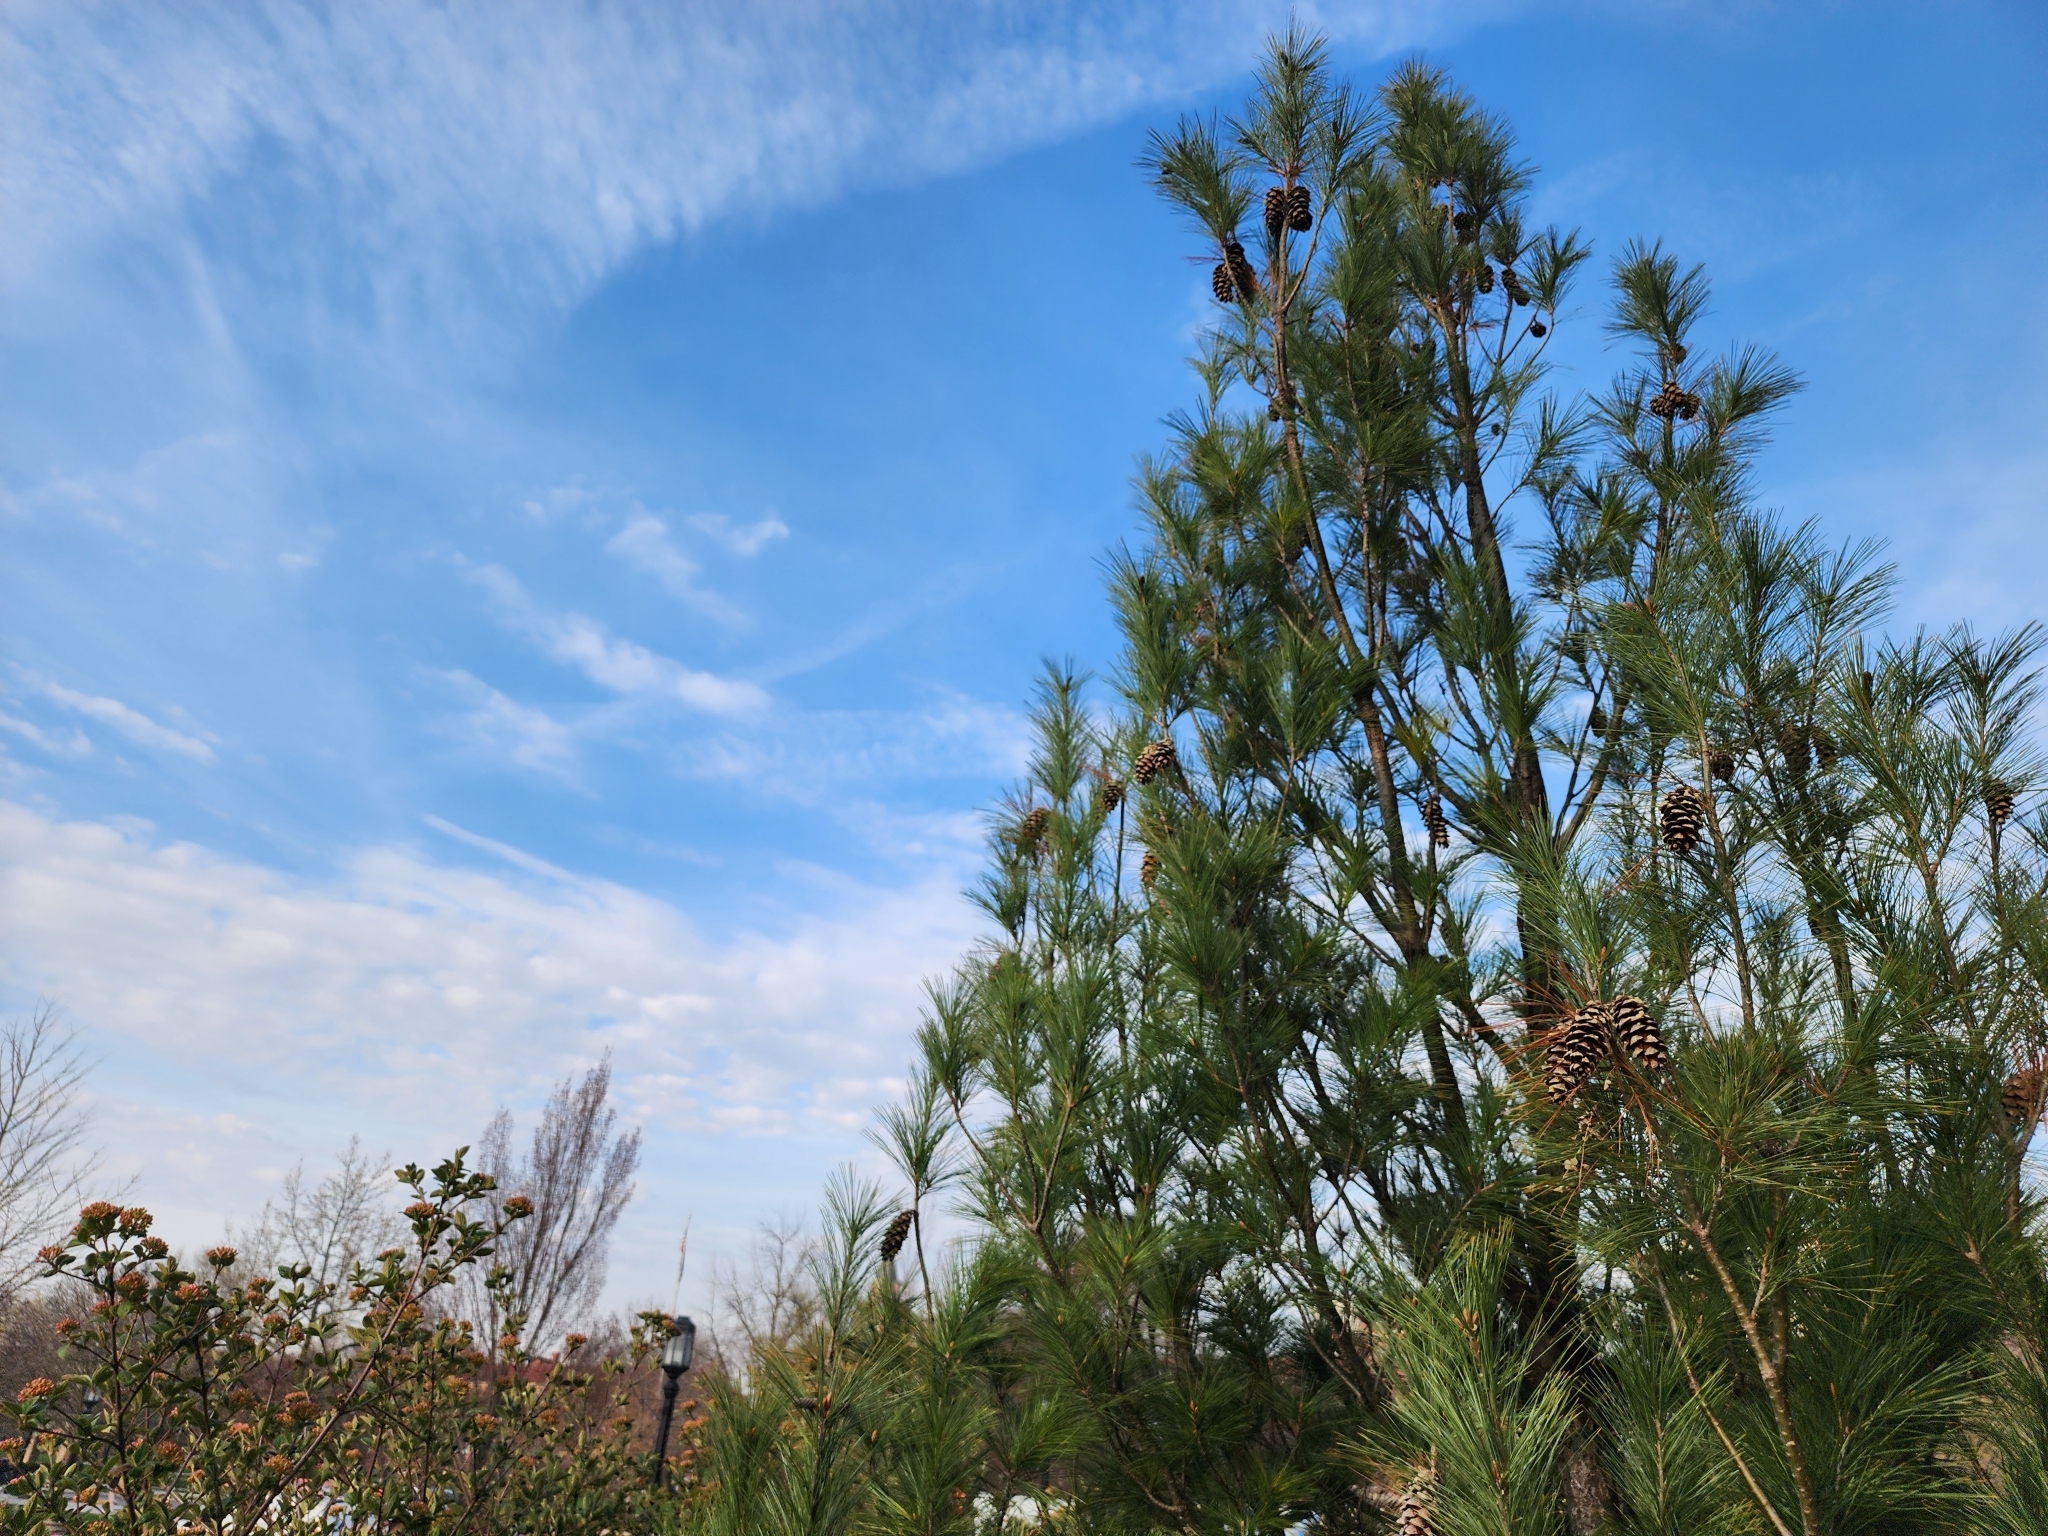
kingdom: Plantae
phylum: Tracheophyta
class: Pinopsida
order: Pinales
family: Pinaceae
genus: Pinus
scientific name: Pinus strobus
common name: Weymouth pine
